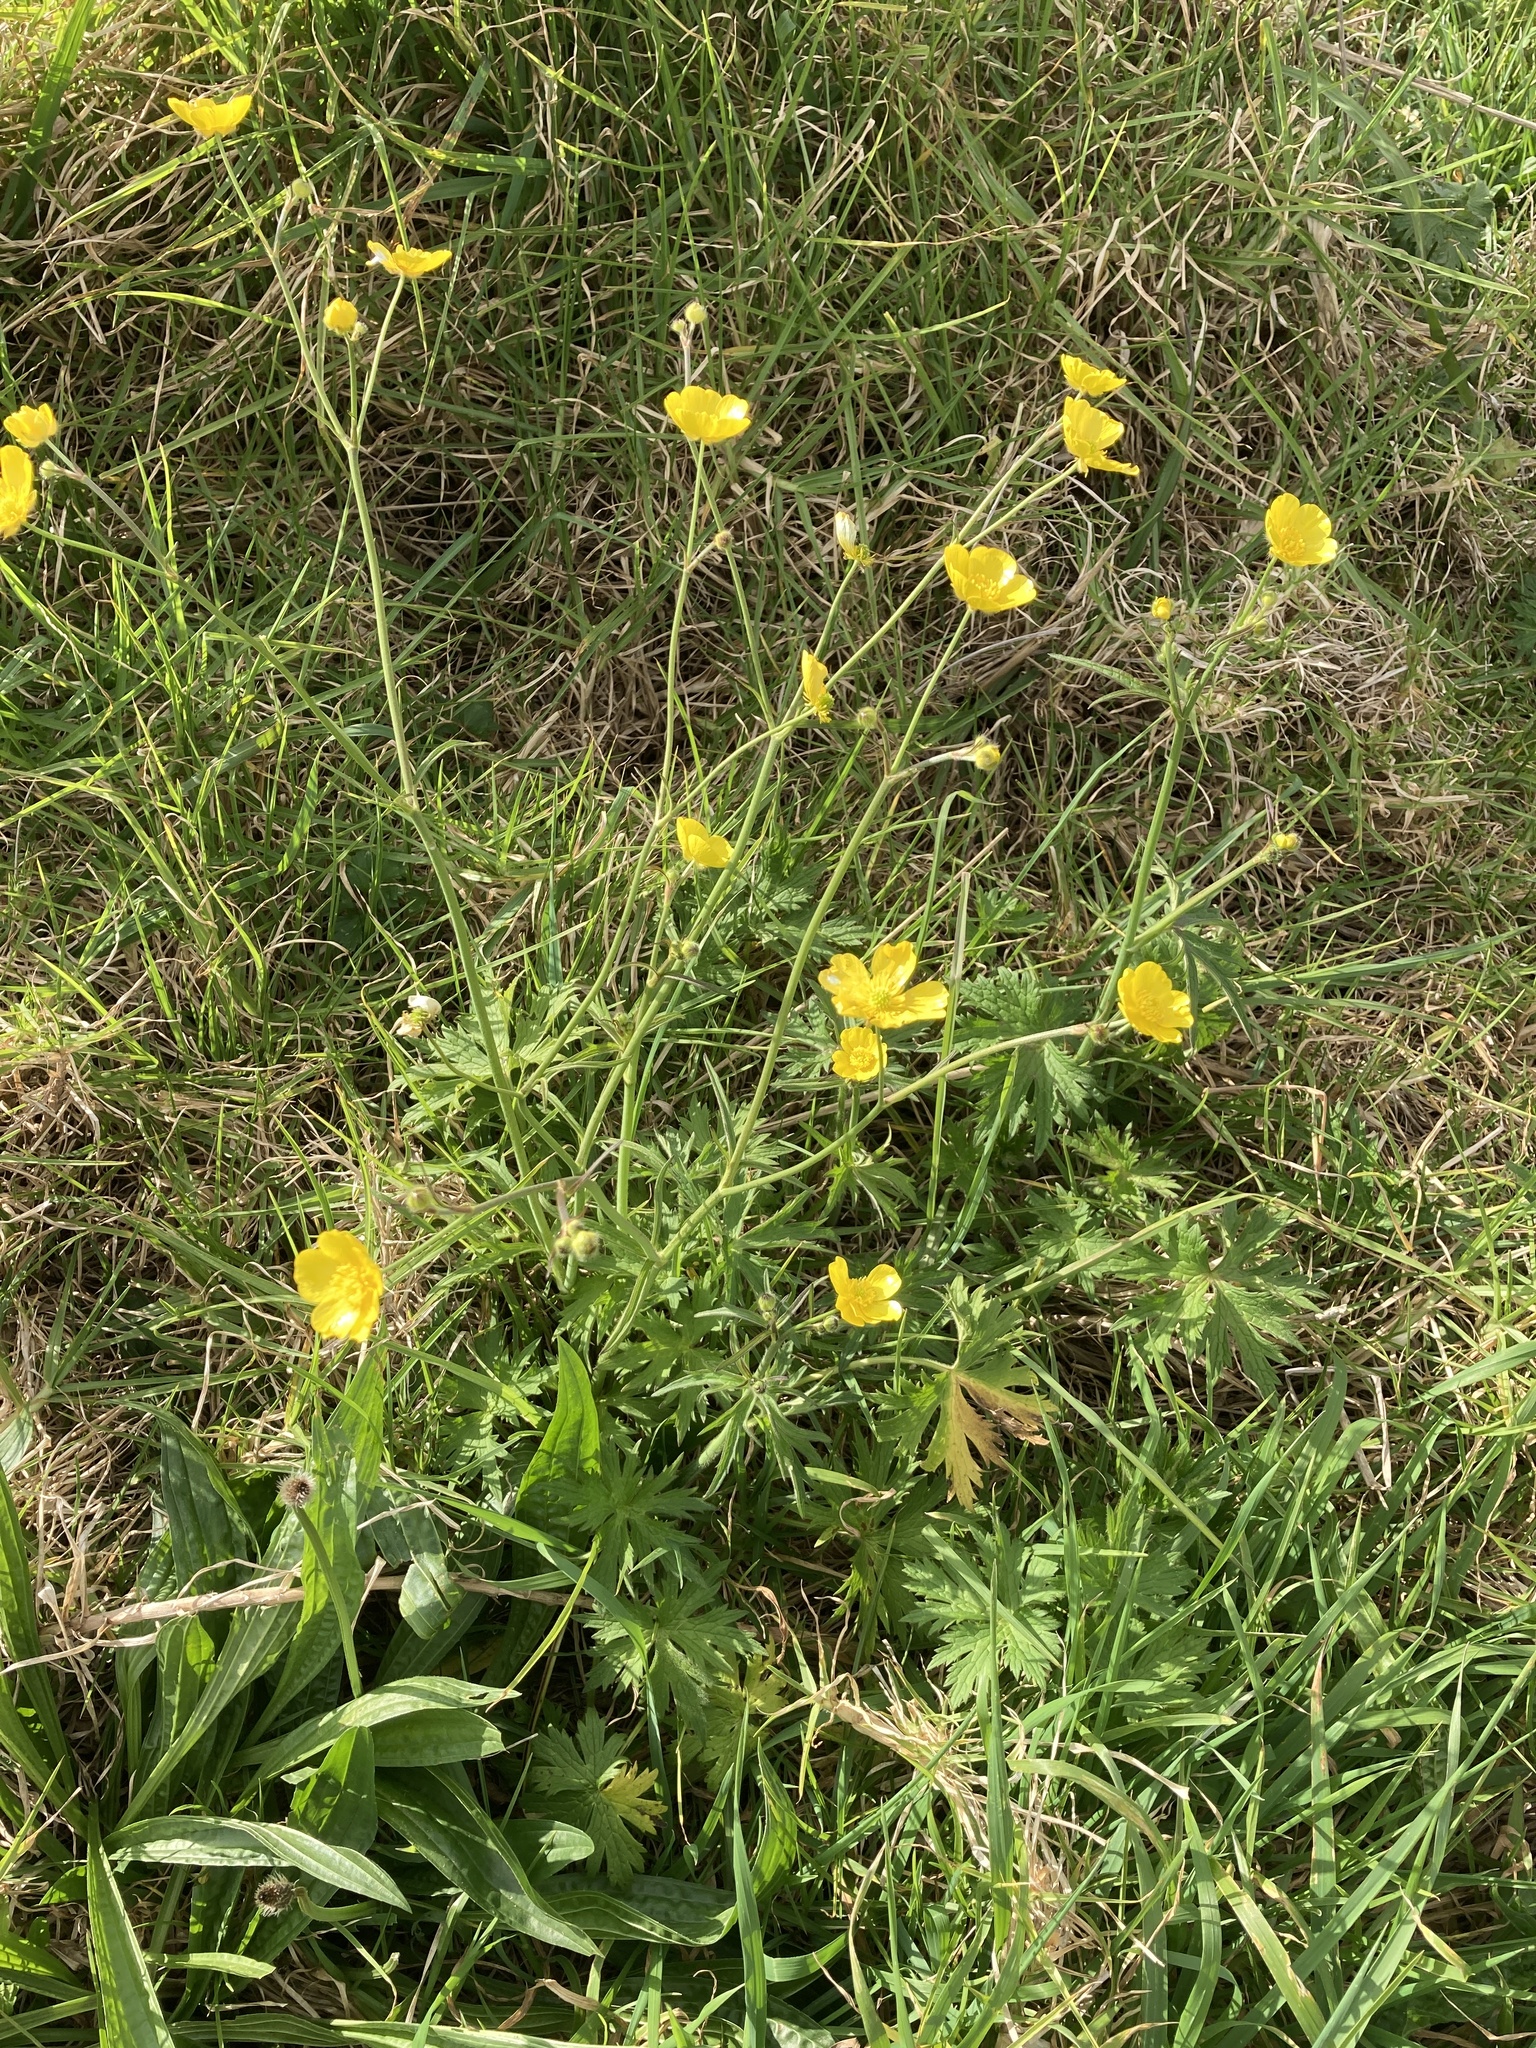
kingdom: Plantae
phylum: Tracheophyta
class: Magnoliopsida
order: Ranunculales
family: Ranunculaceae
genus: Ranunculus
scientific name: Ranunculus acris
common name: Meadow buttercup
